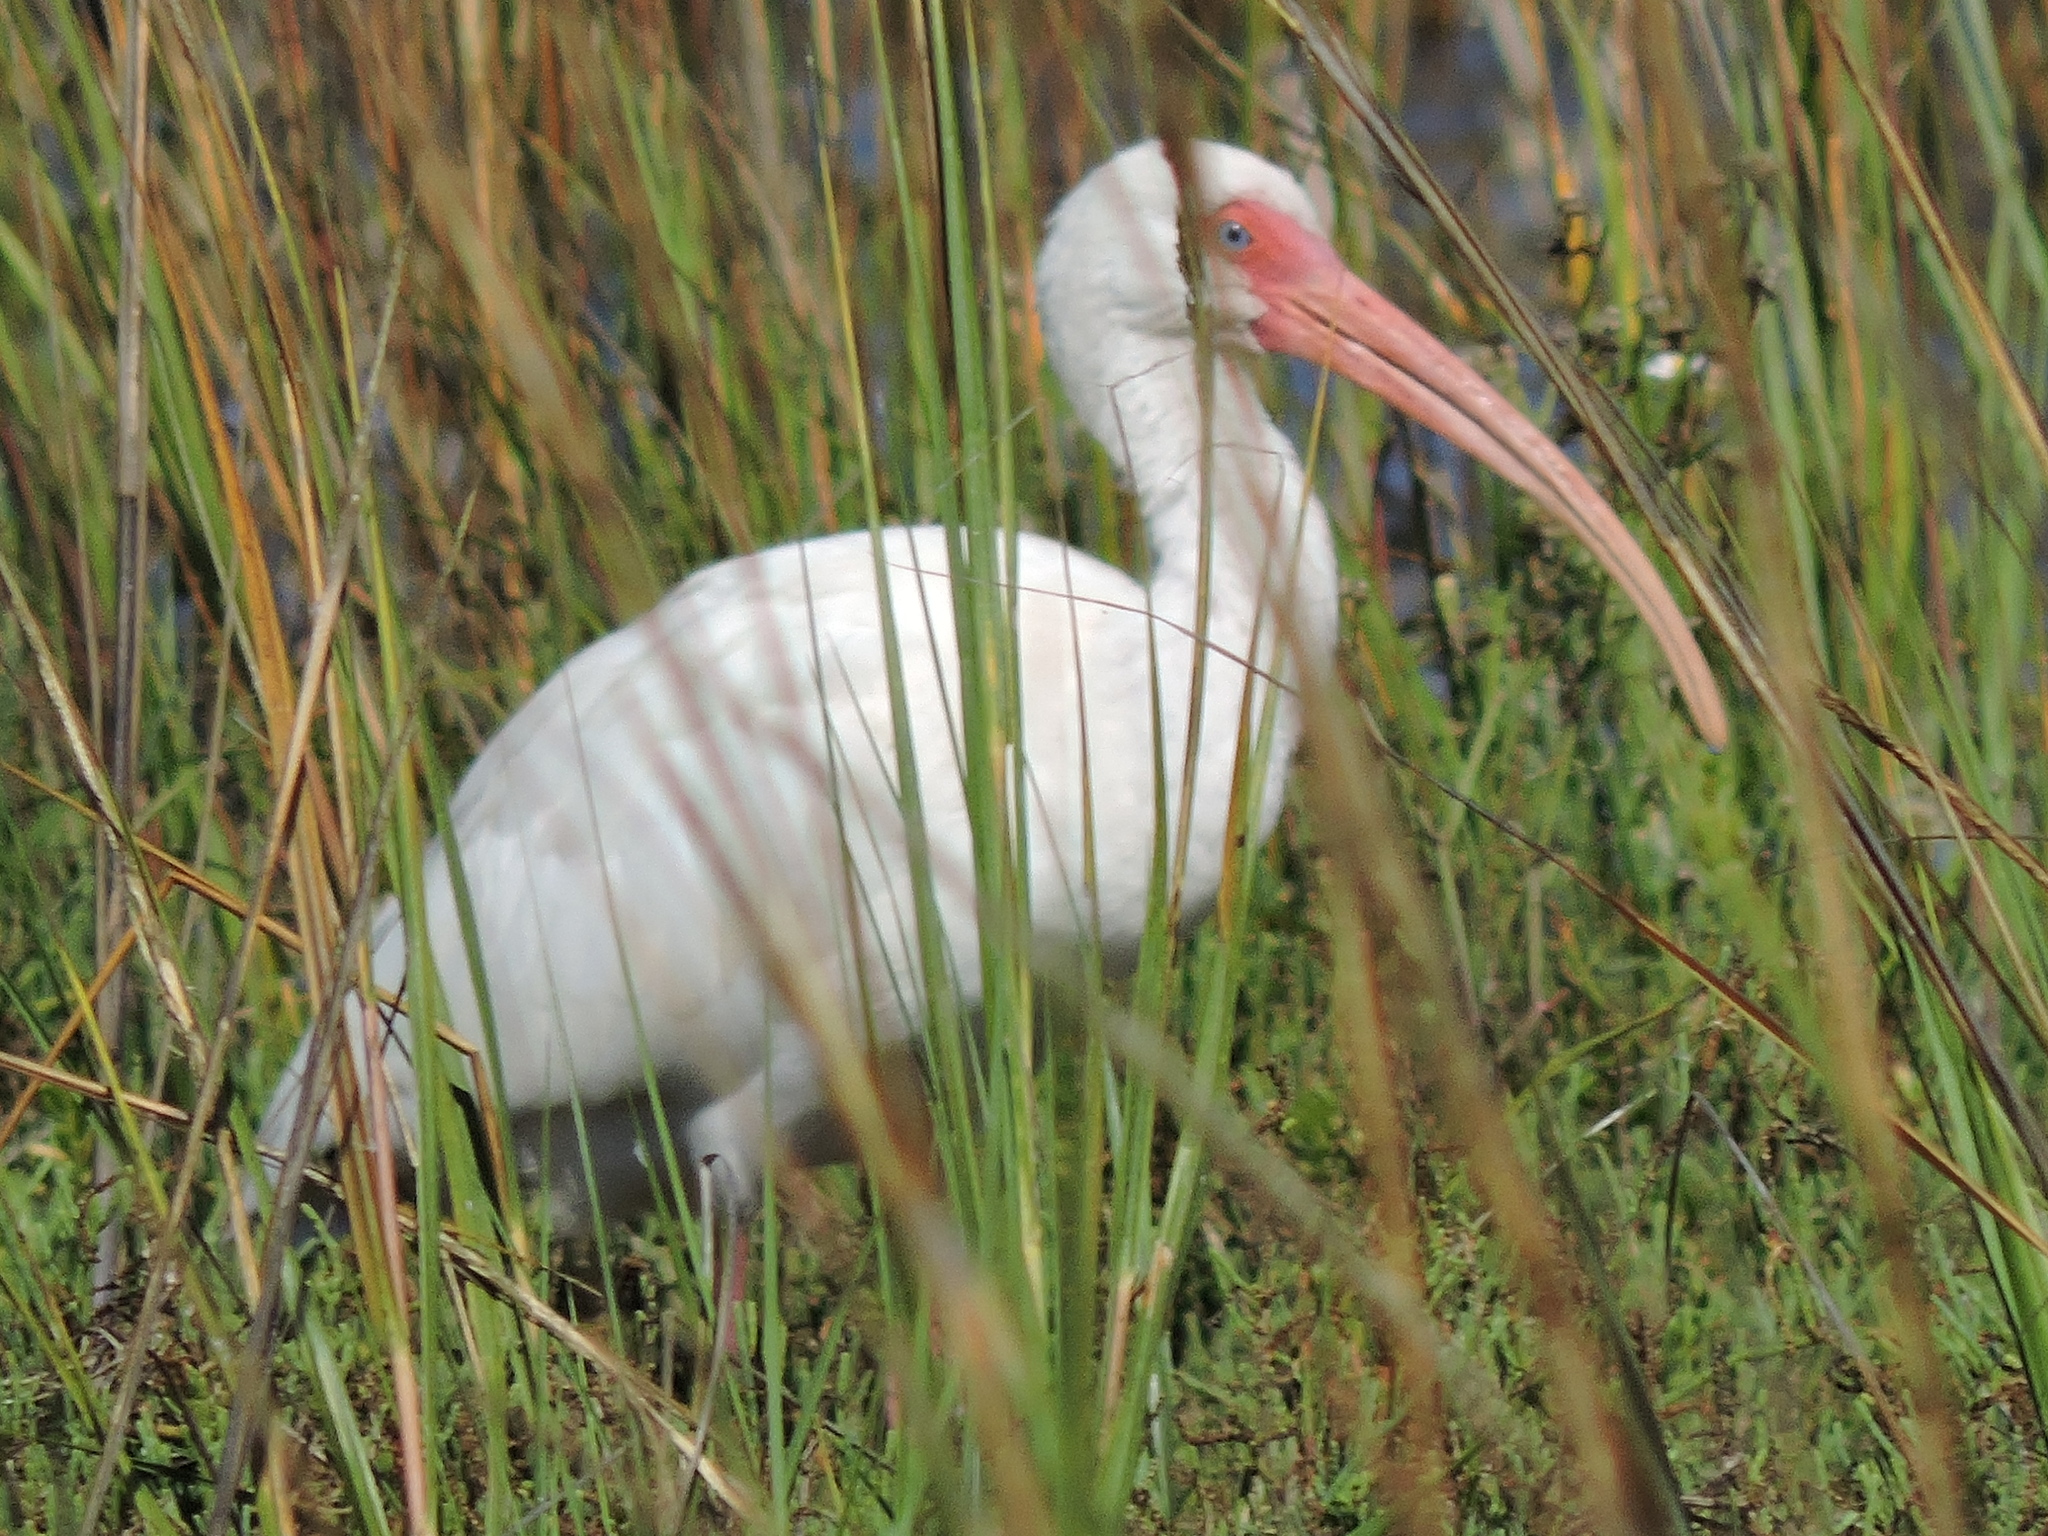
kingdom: Animalia
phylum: Chordata
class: Aves
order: Pelecaniformes
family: Threskiornithidae
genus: Eudocimus
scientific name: Eudocimus albus
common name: White ibis
